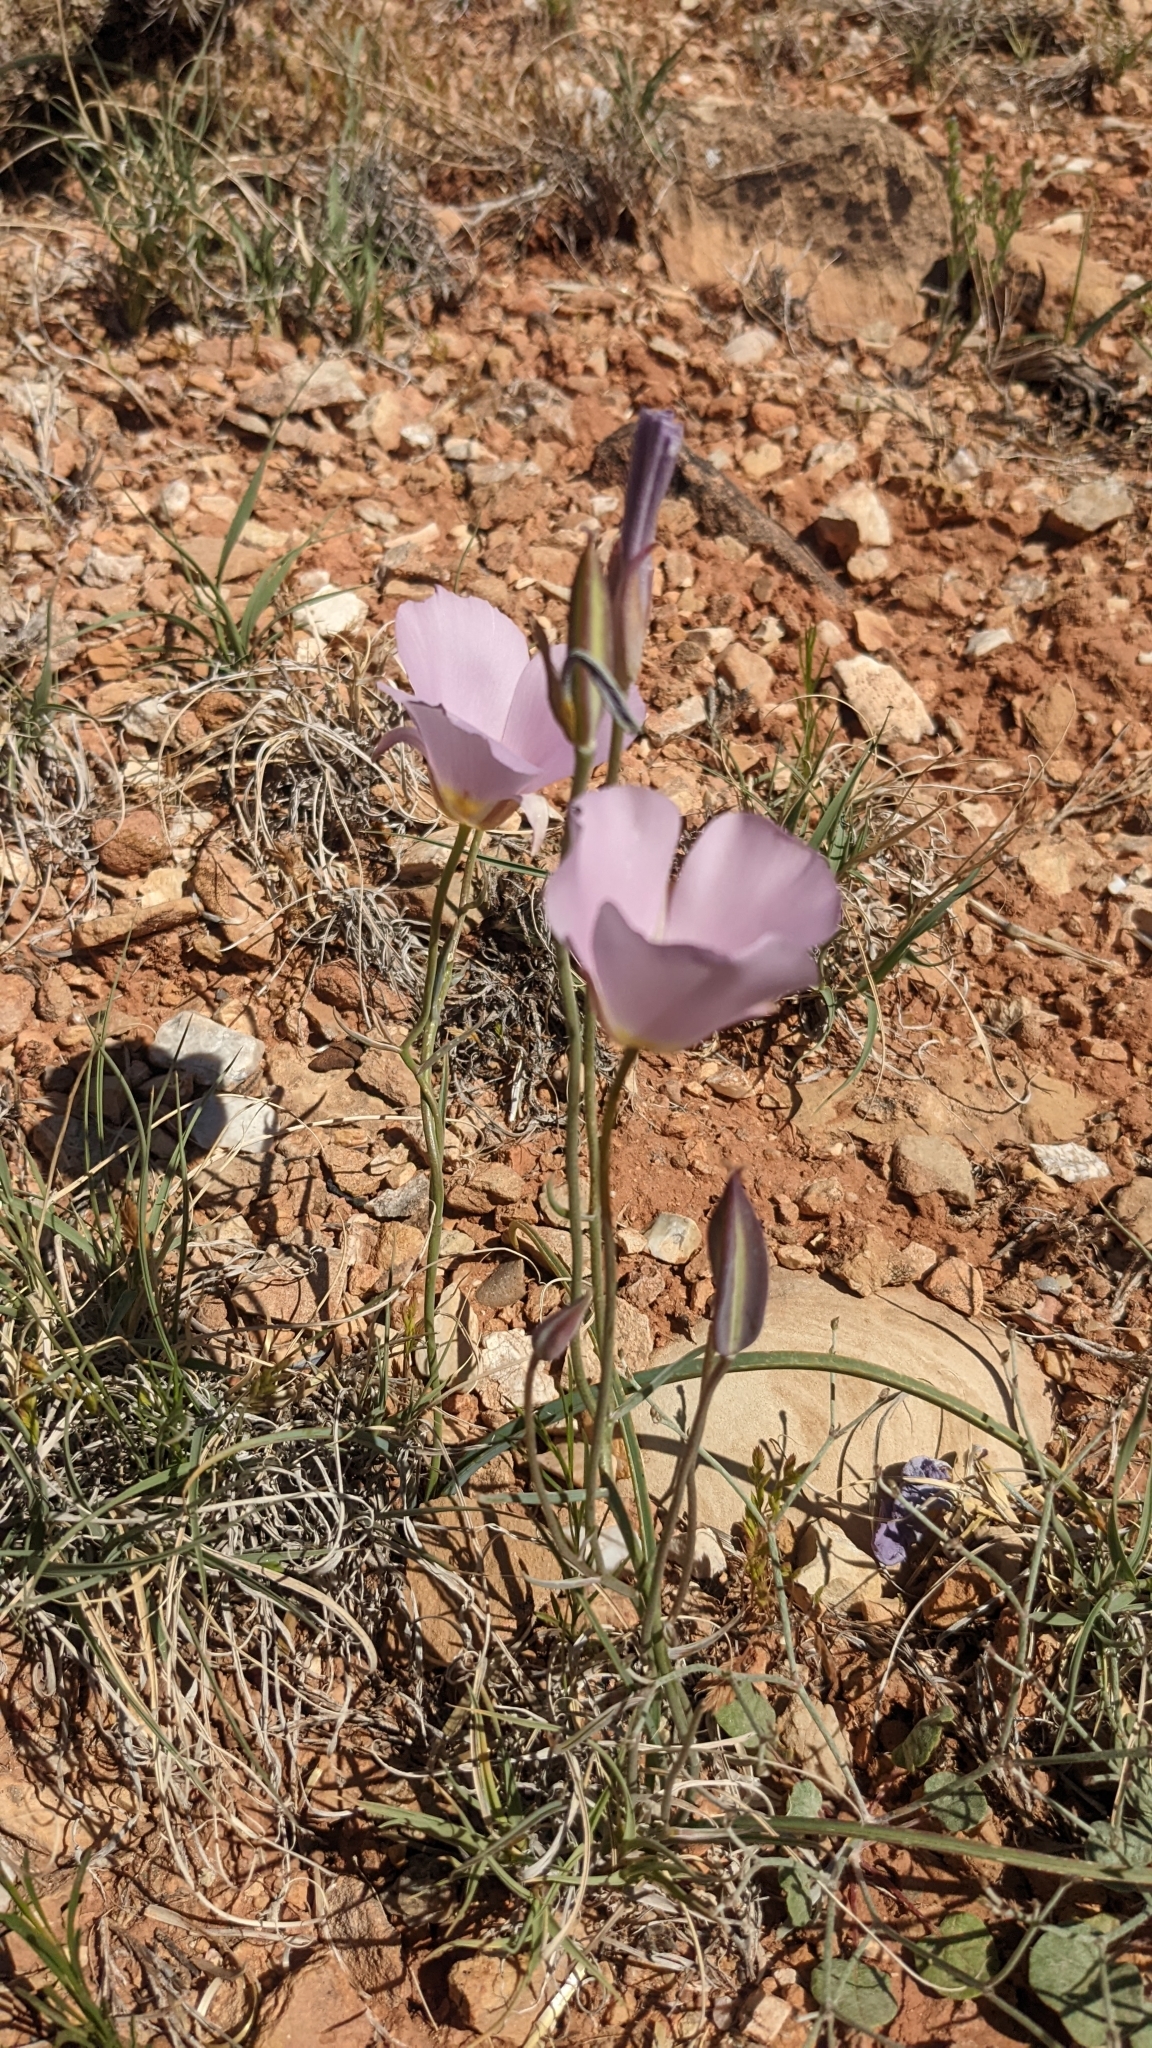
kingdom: Plantae
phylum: Tracheophyta
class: Liliopsida
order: Liliales
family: Liliaceae
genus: Calochortus
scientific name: Calochortus flexuosus
